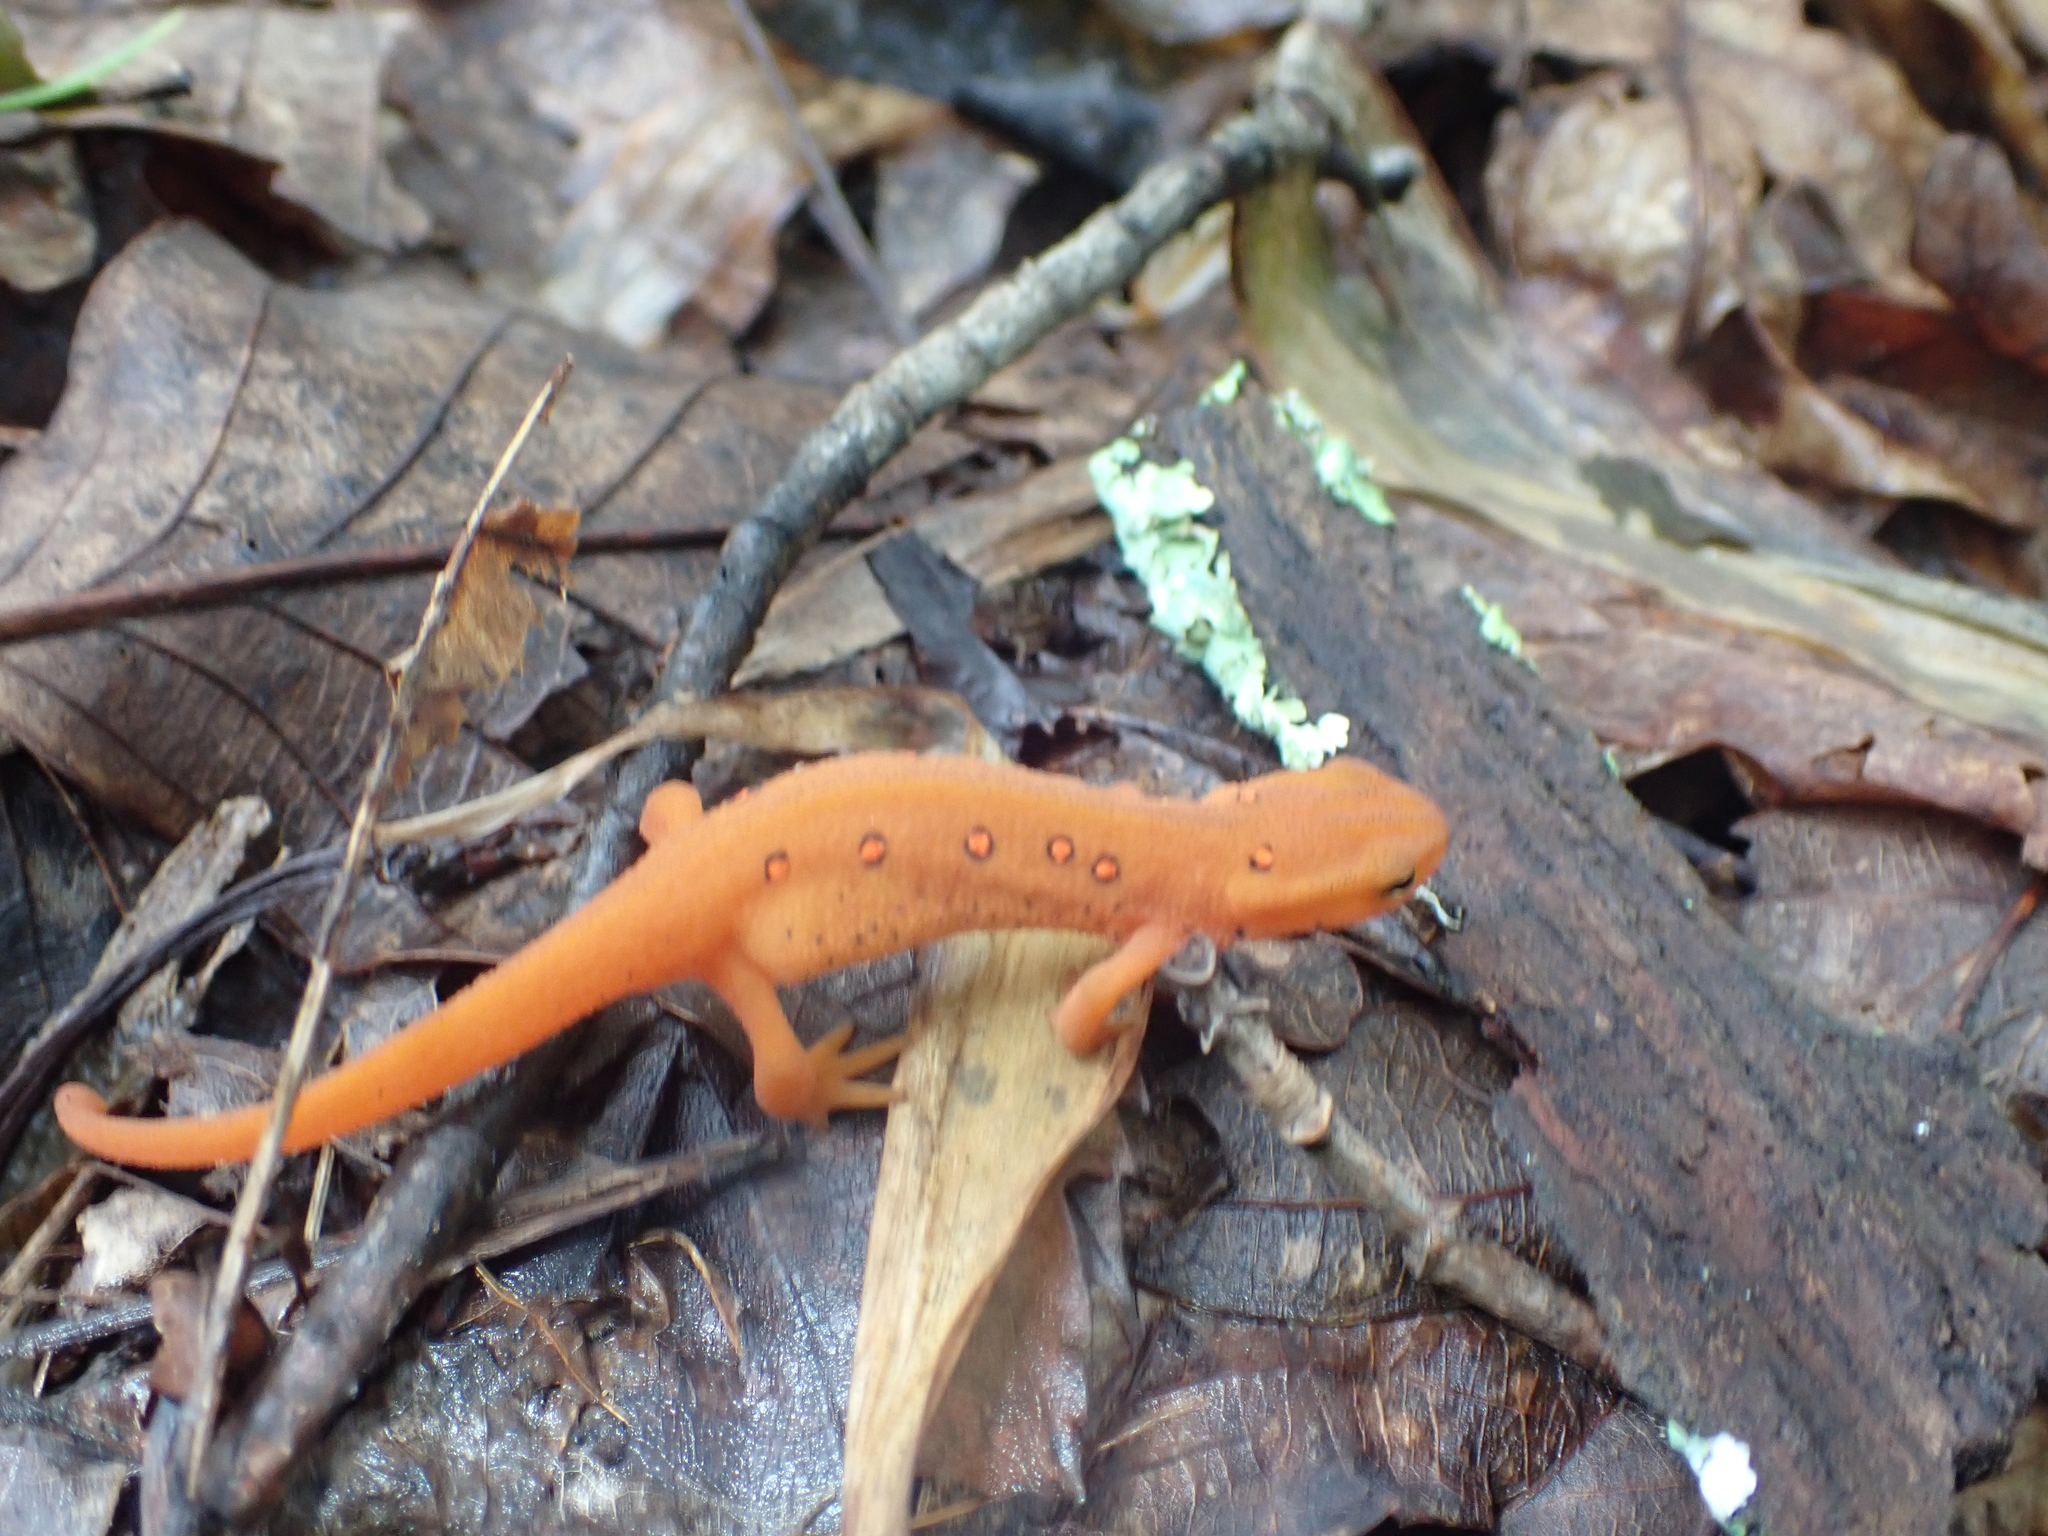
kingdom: Animalia
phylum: Chordata
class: Amphibia
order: Caudata
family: Salamandridae
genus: Notophthalmus
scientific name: Notophthalmus viridescens
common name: Eastern newt
